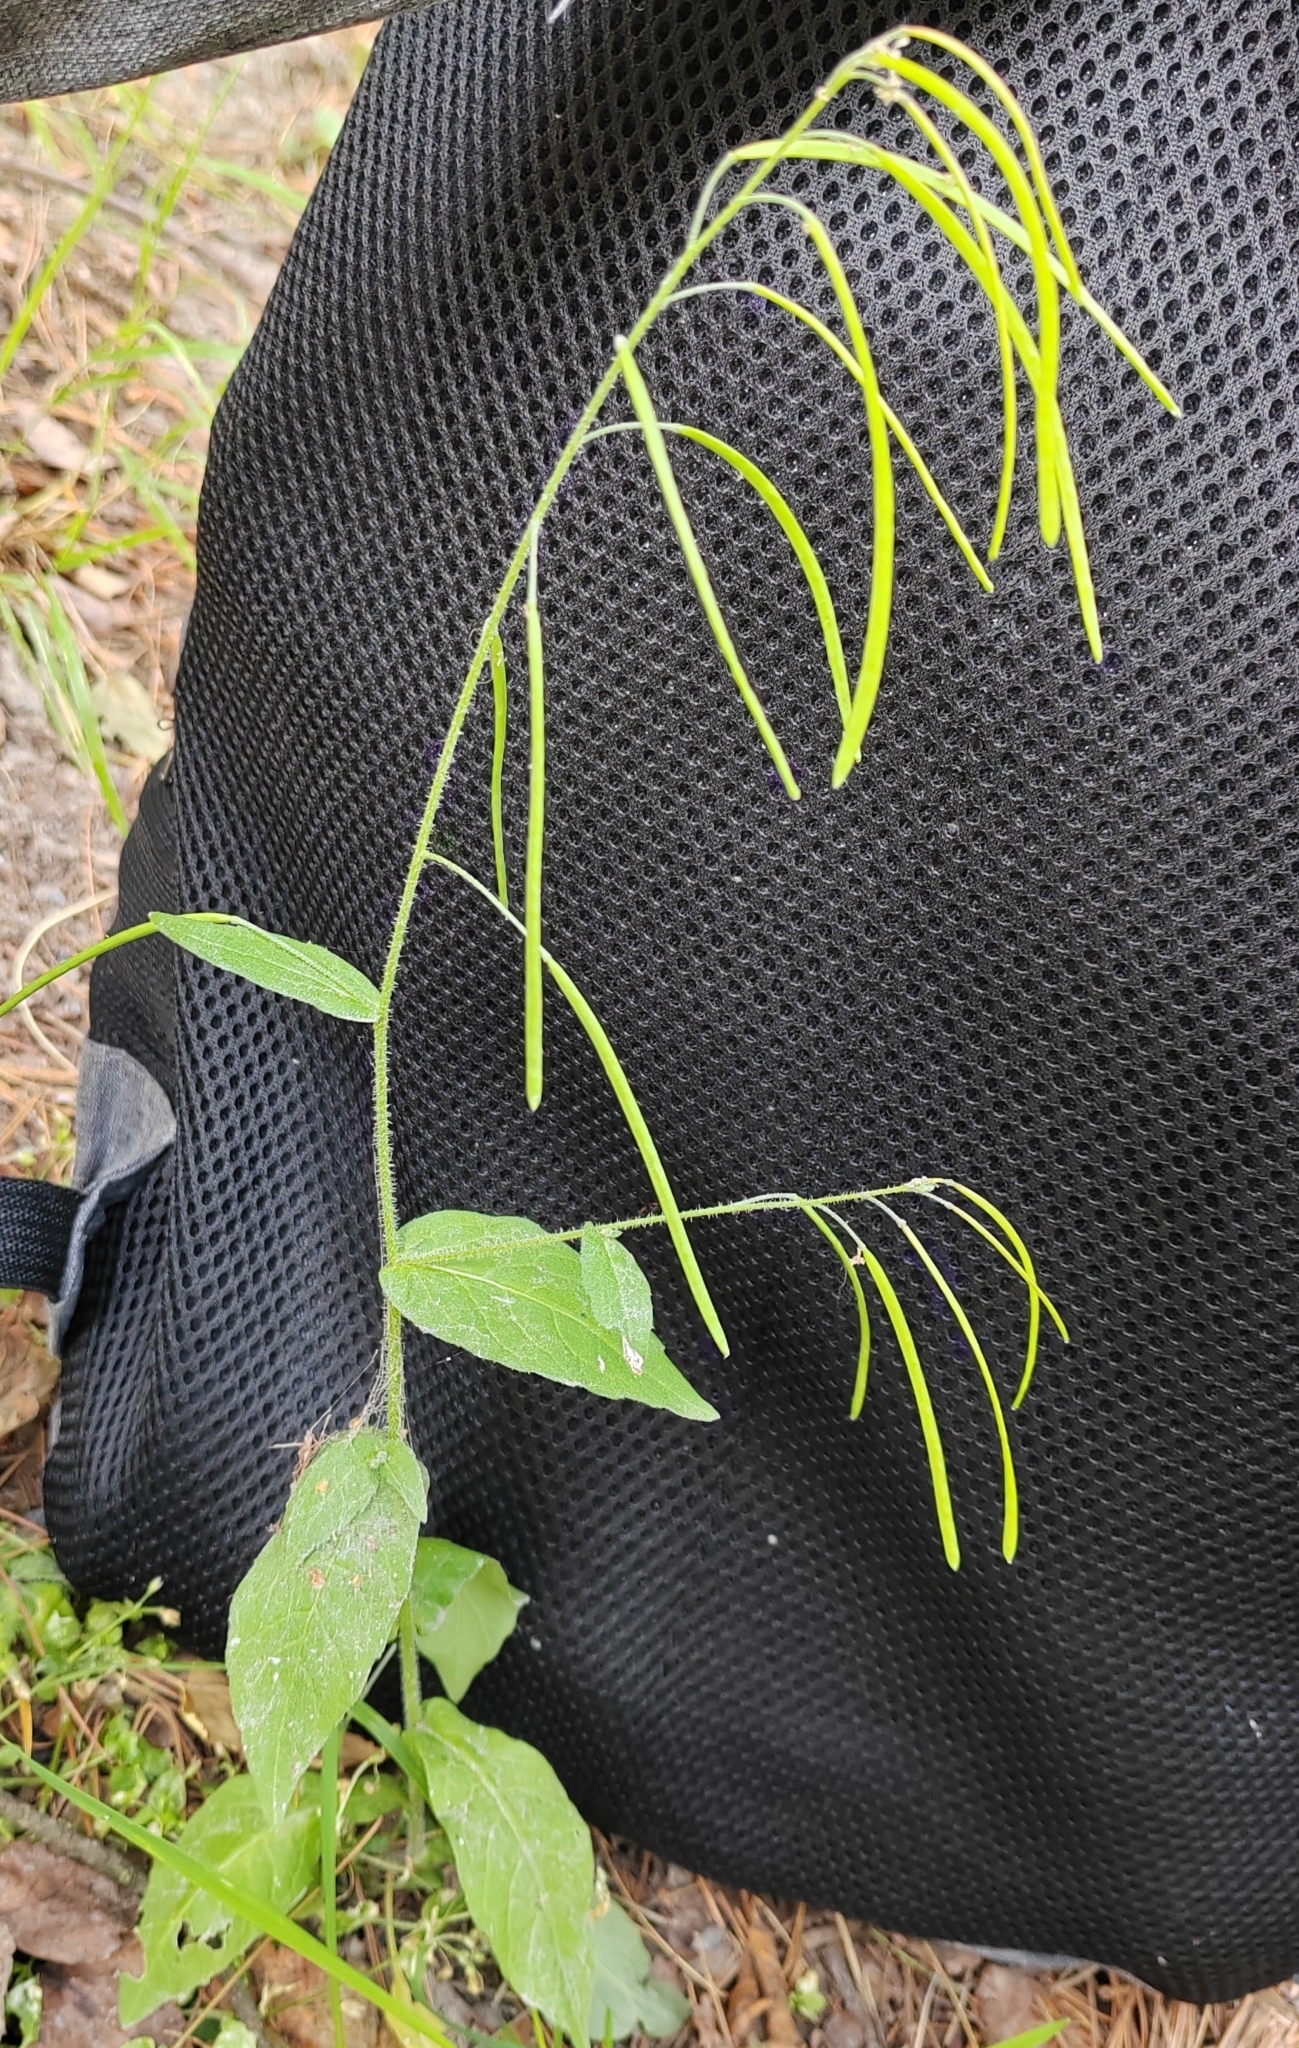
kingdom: Plantae
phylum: Tracheophyta
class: Magnoliopsida
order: Brassicales
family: Brassicaceae
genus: Catolobus
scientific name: Catolobus pendulus
